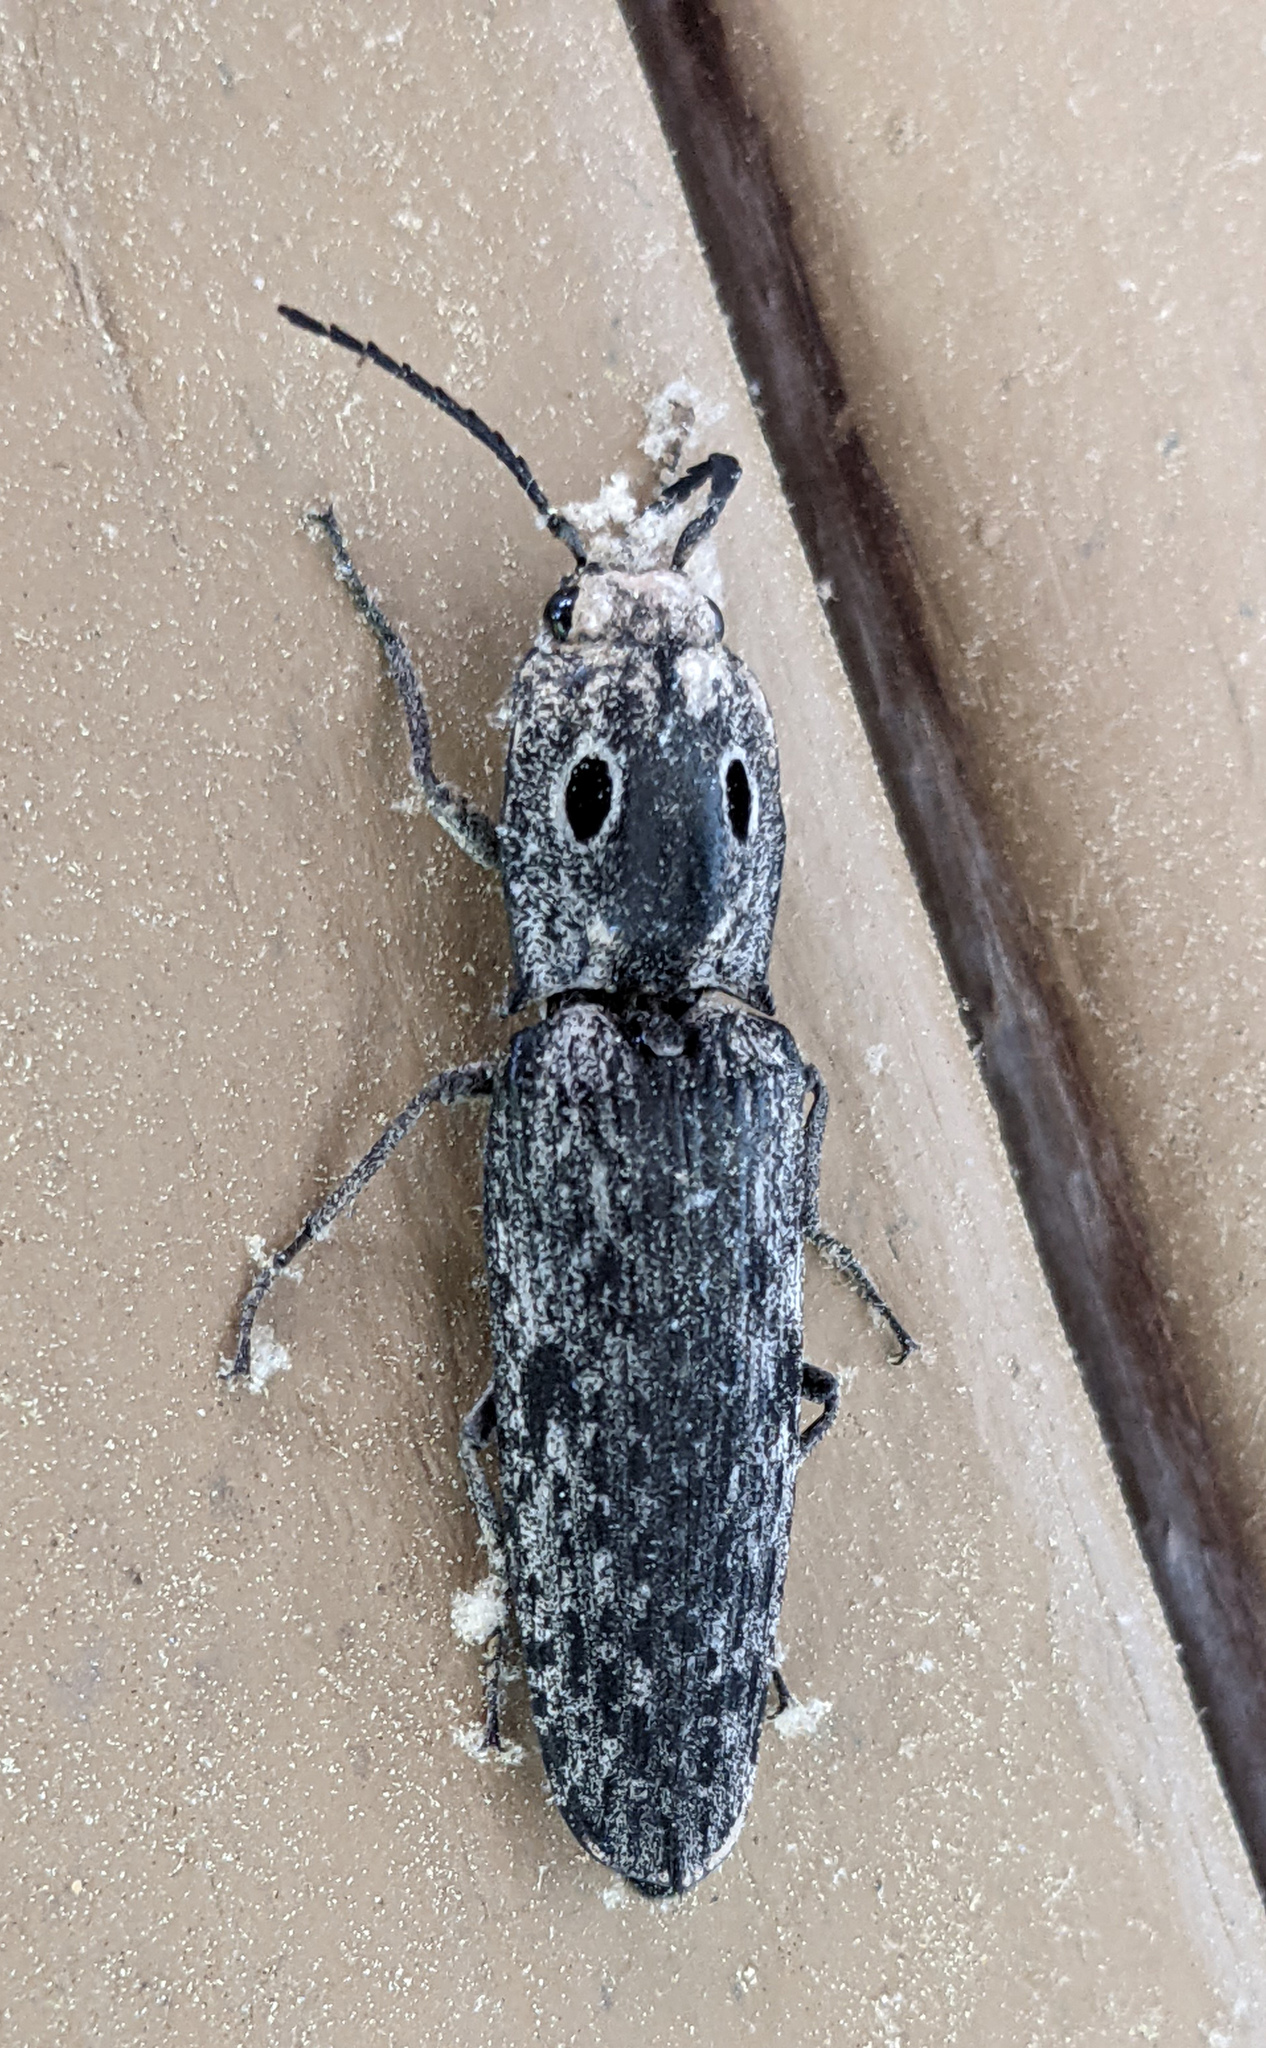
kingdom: Animalia
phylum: Arthropoda
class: Insecta
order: Coleoptera
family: Elateridae
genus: Alaus
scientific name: Alaus myops
